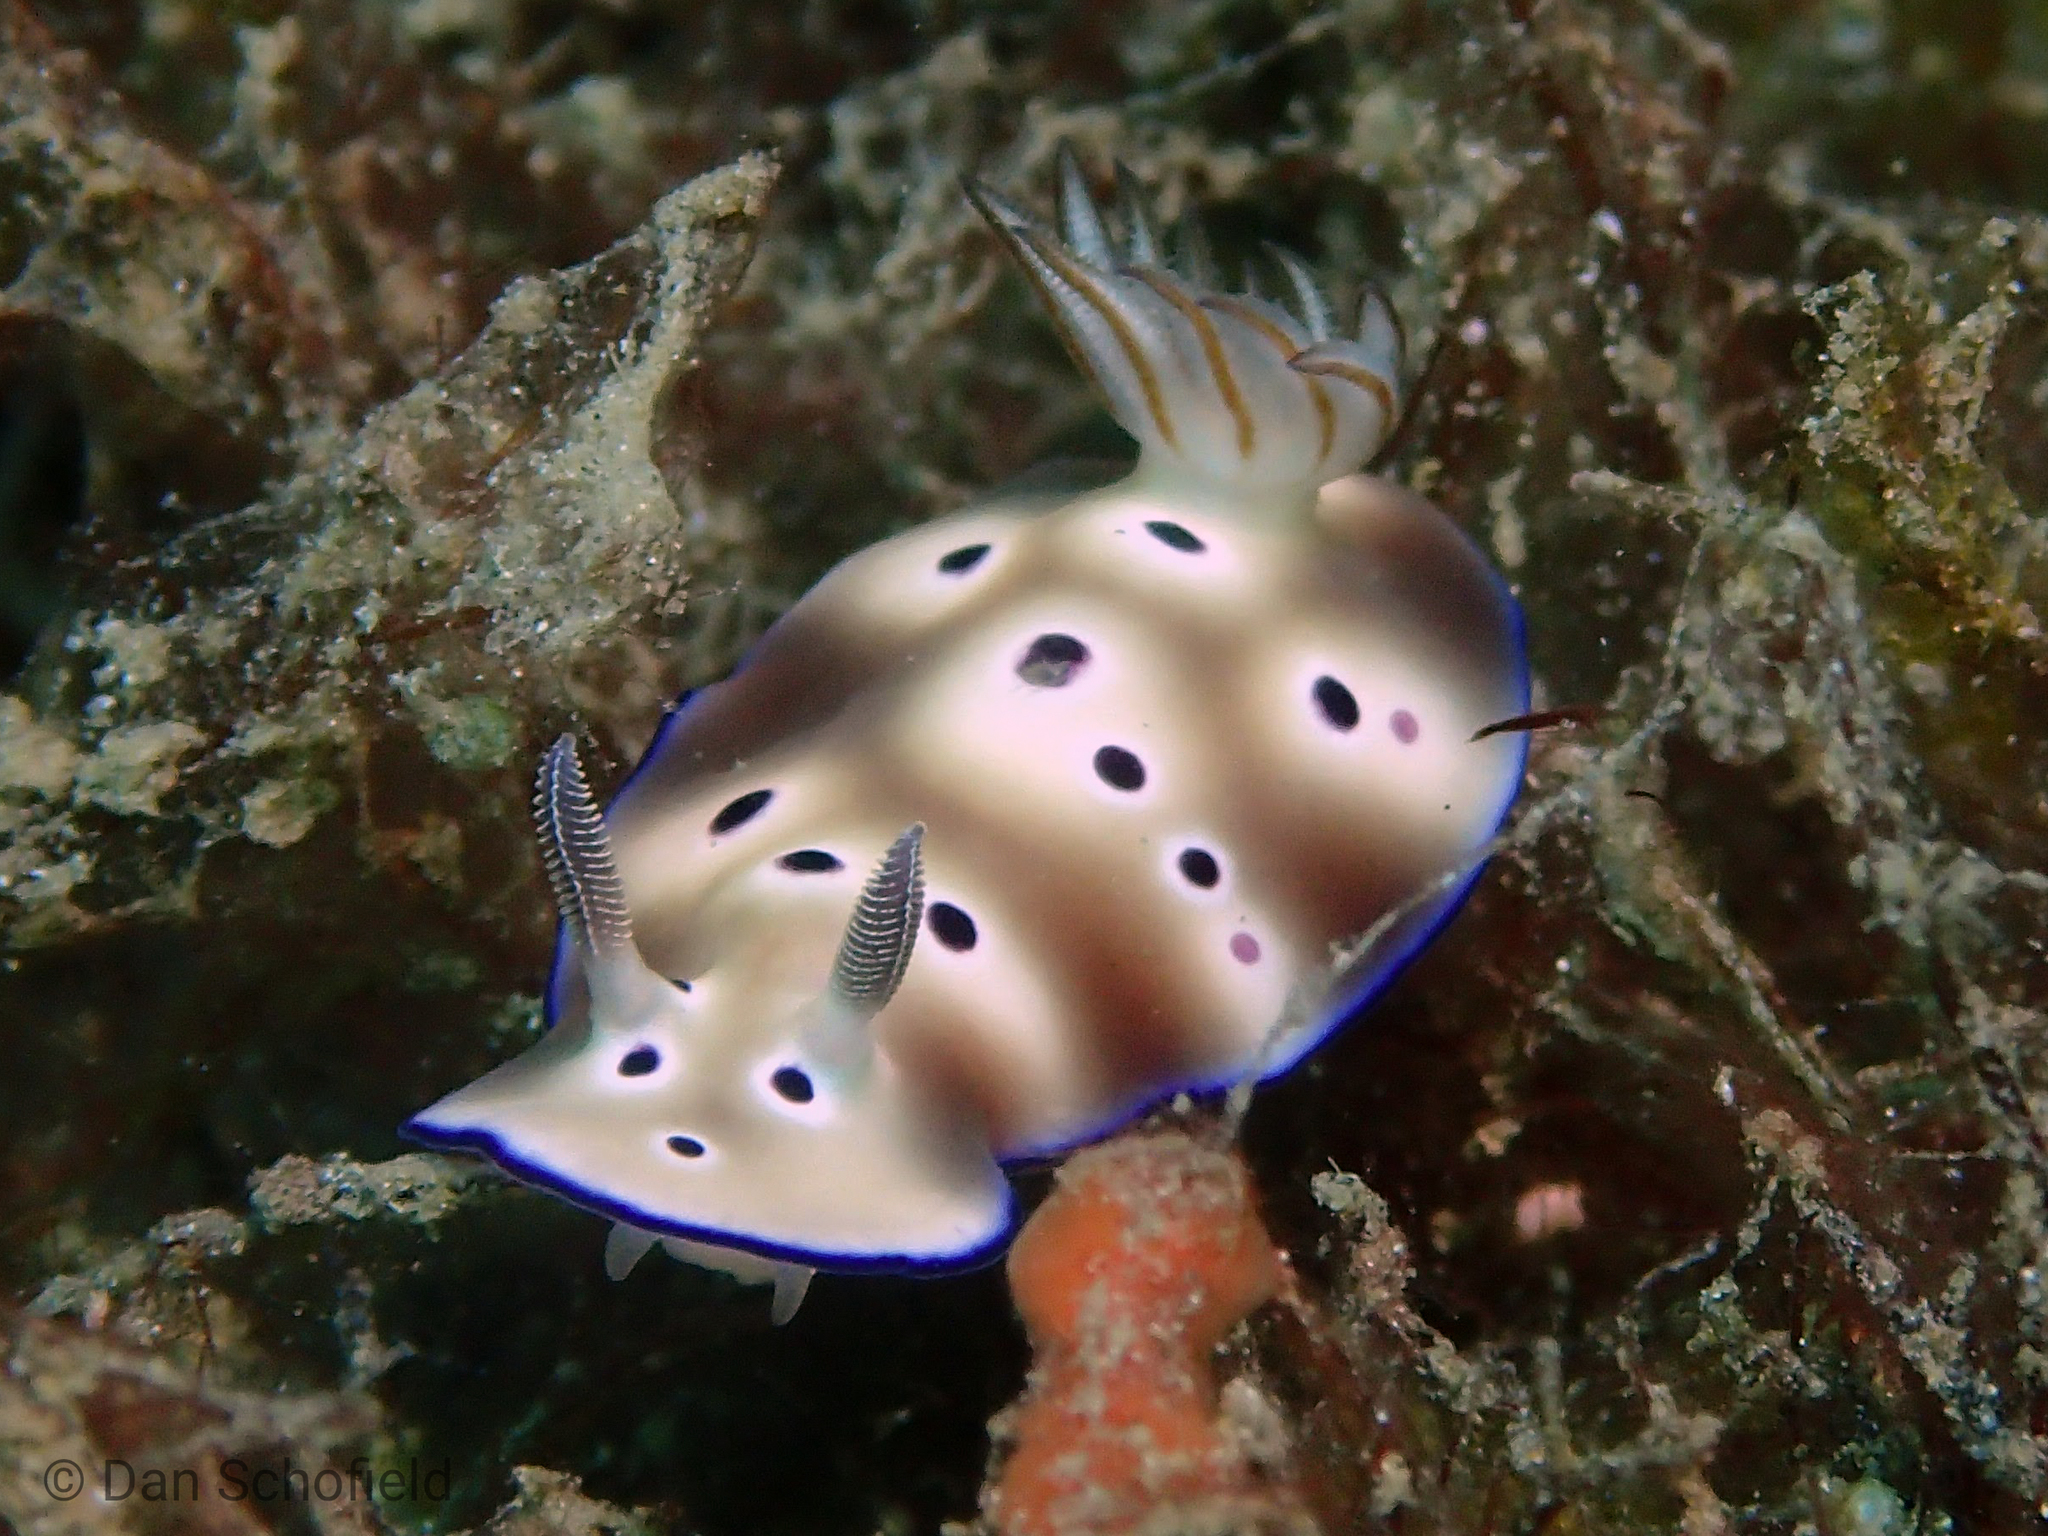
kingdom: Animalia
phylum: Mollusca
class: Gastropoda
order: Nudibranchia
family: Chromodorididae
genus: Hypselodoris
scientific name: Hypselodoris tryoni
